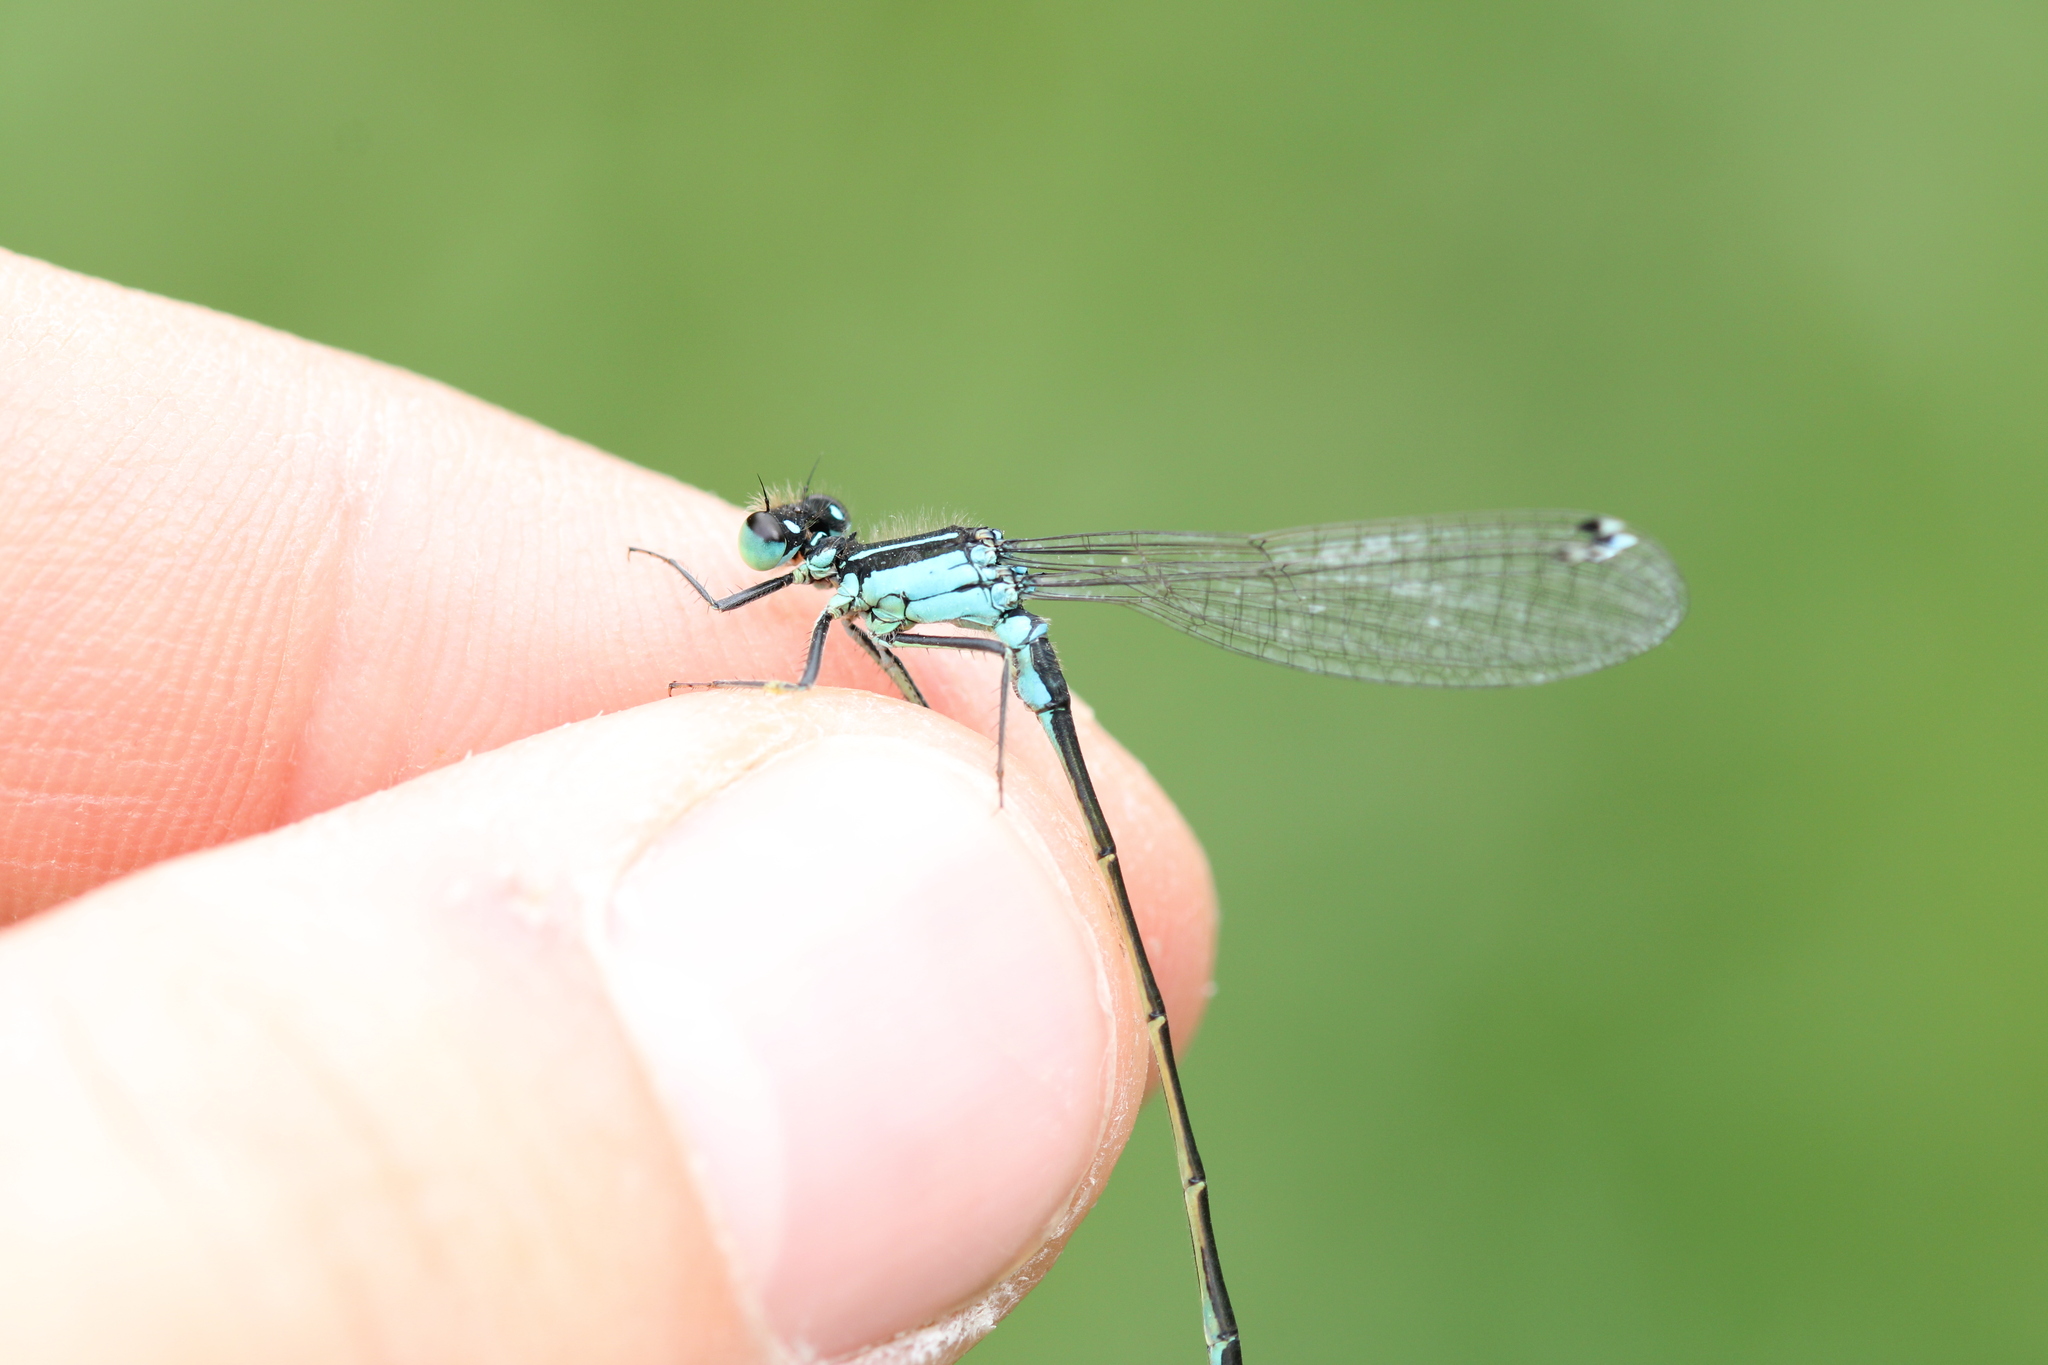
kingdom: Animalia
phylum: Arthropoda
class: Insecta
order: Odonata
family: Coenagrionidae
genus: Ischnura
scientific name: Ischnura elegans
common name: Blue-tailed damselfly
